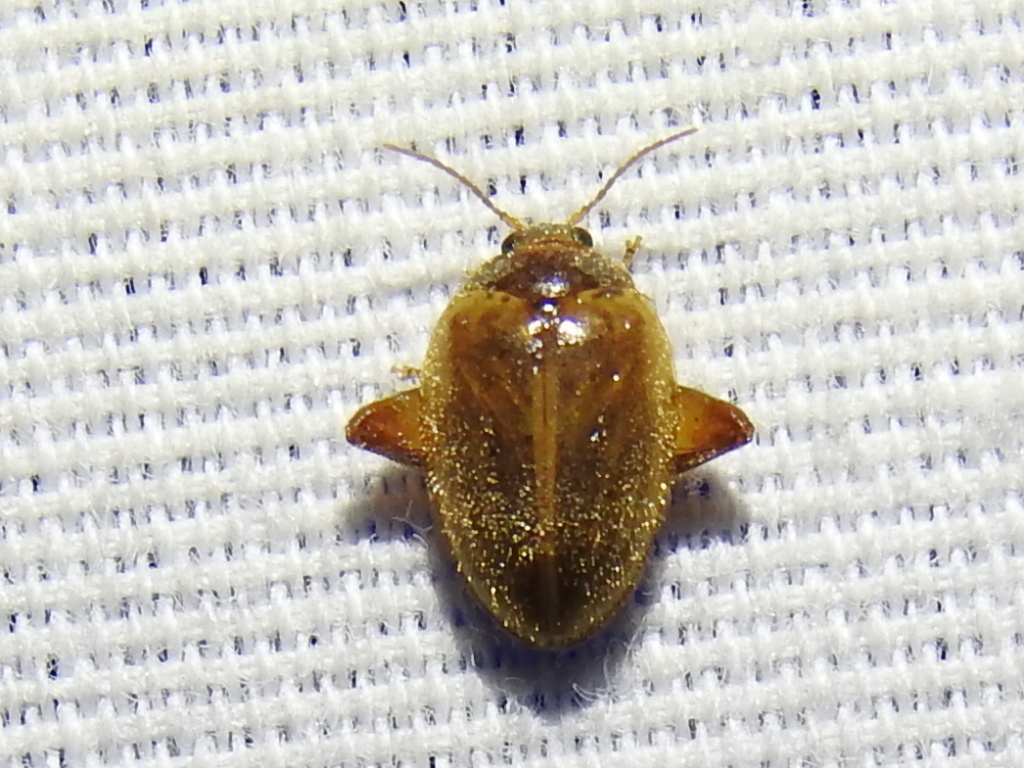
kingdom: Animalia
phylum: Arthropoda
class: Insecta
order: Coleoptera
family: Scirtidae
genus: Ora
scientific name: Ora discoidea
